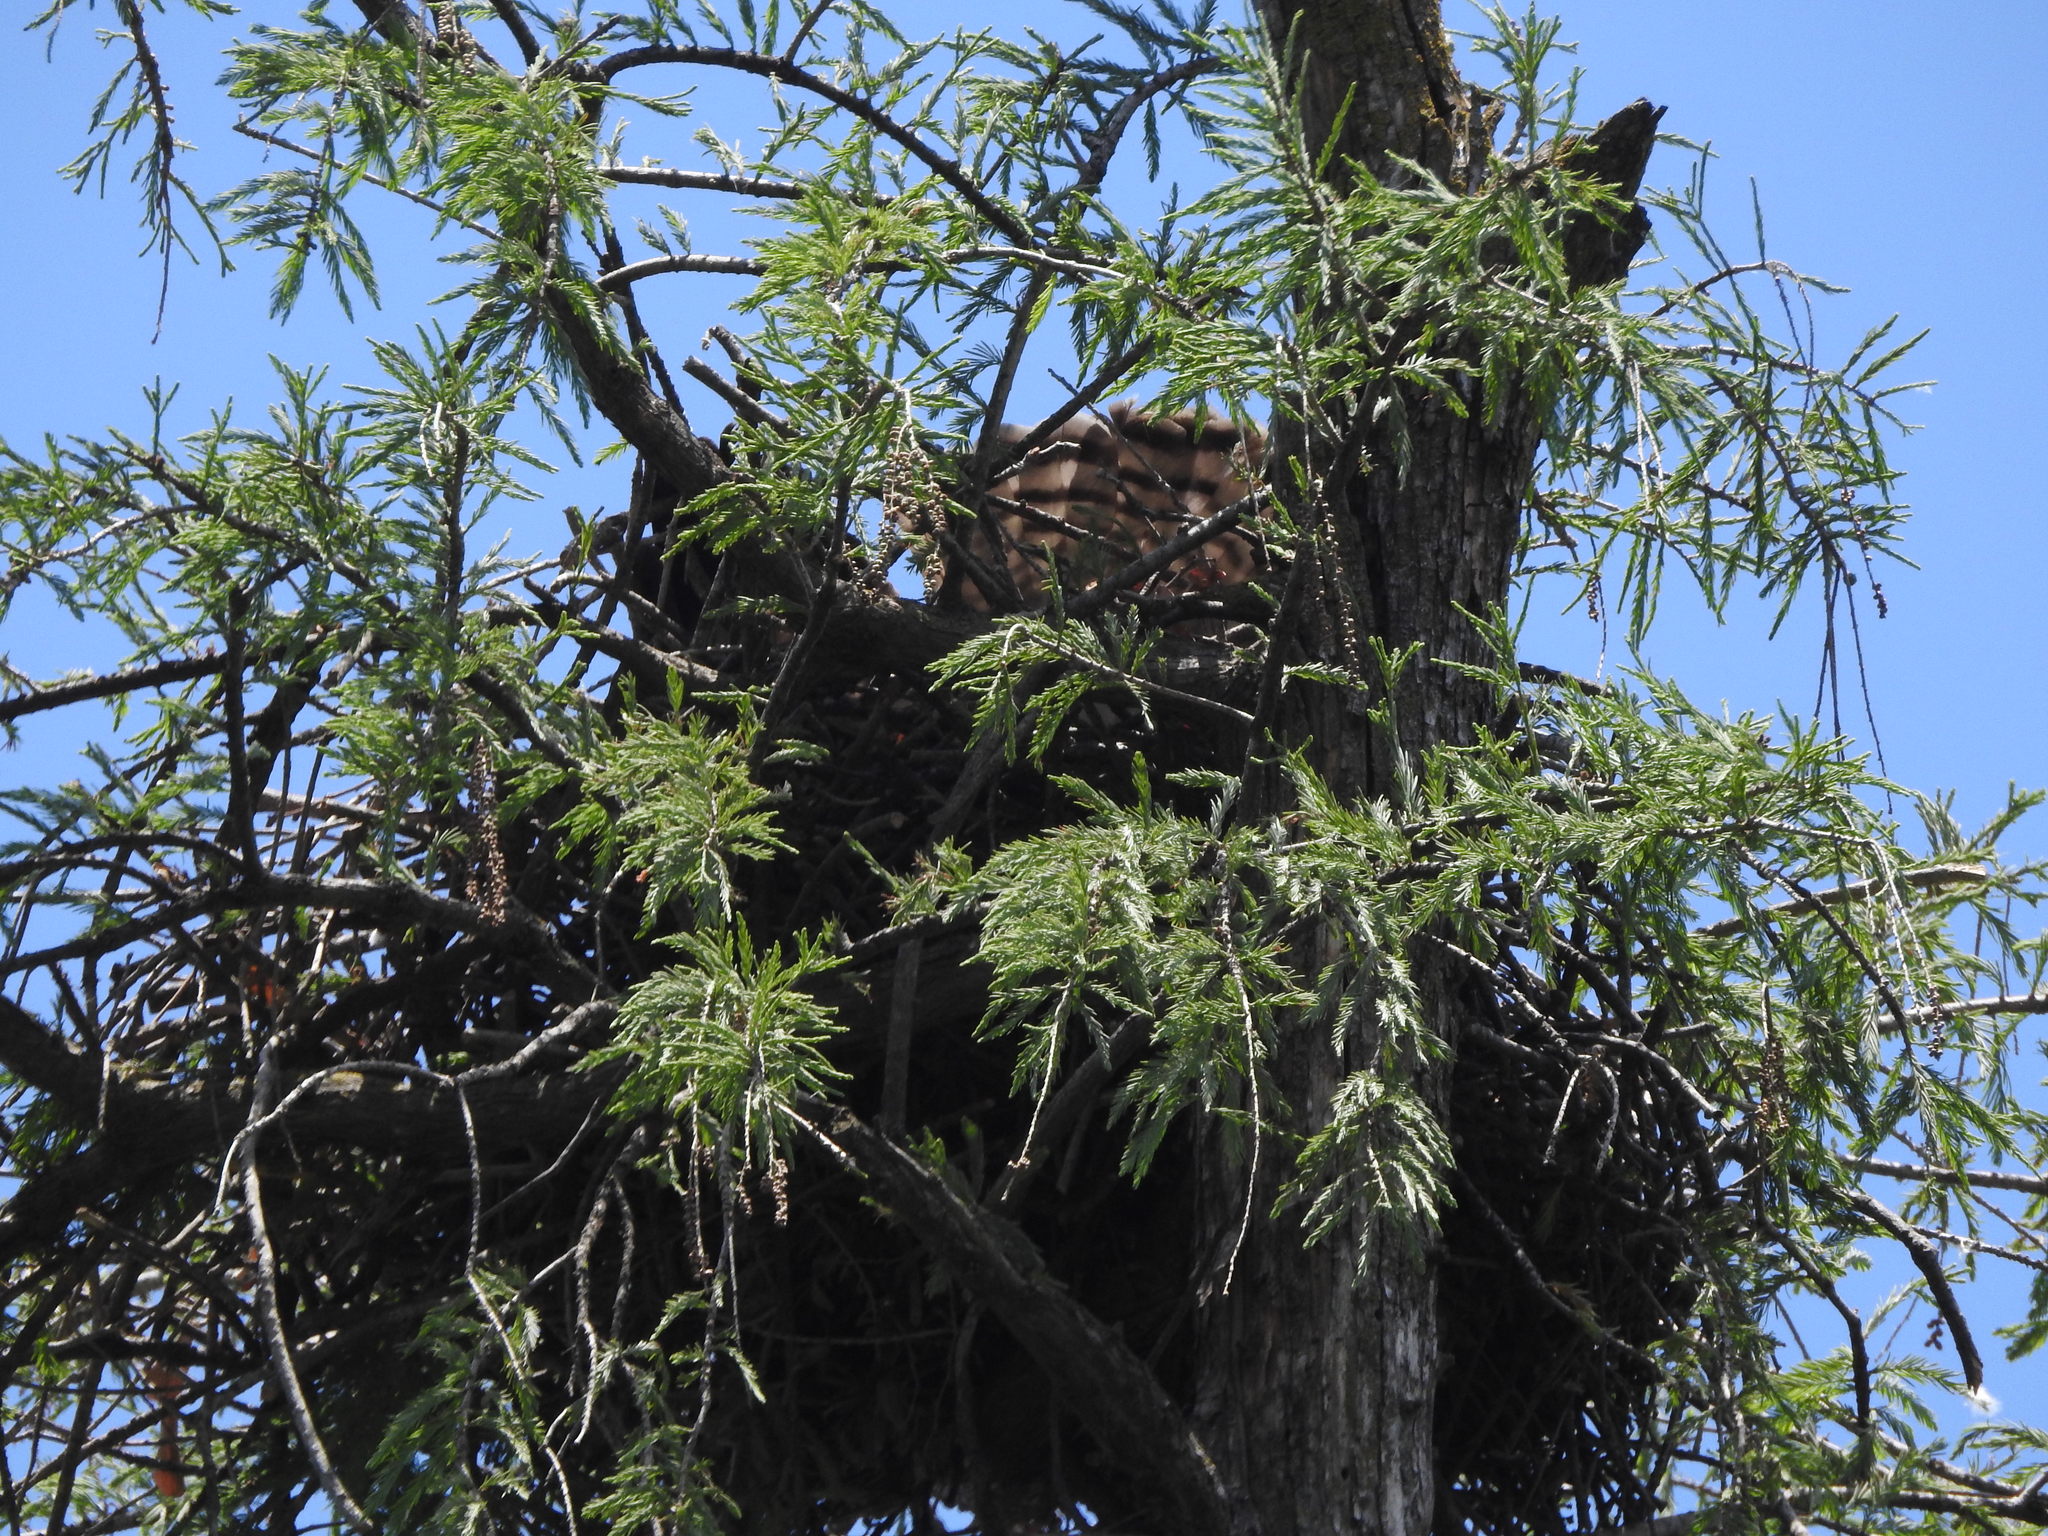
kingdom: Plantae
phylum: Tracheophyta
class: Pinopsida
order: Pinales
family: Cupressaceae
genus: Taxodium
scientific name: Taxodium mucronatum
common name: Montezume bald cypress
